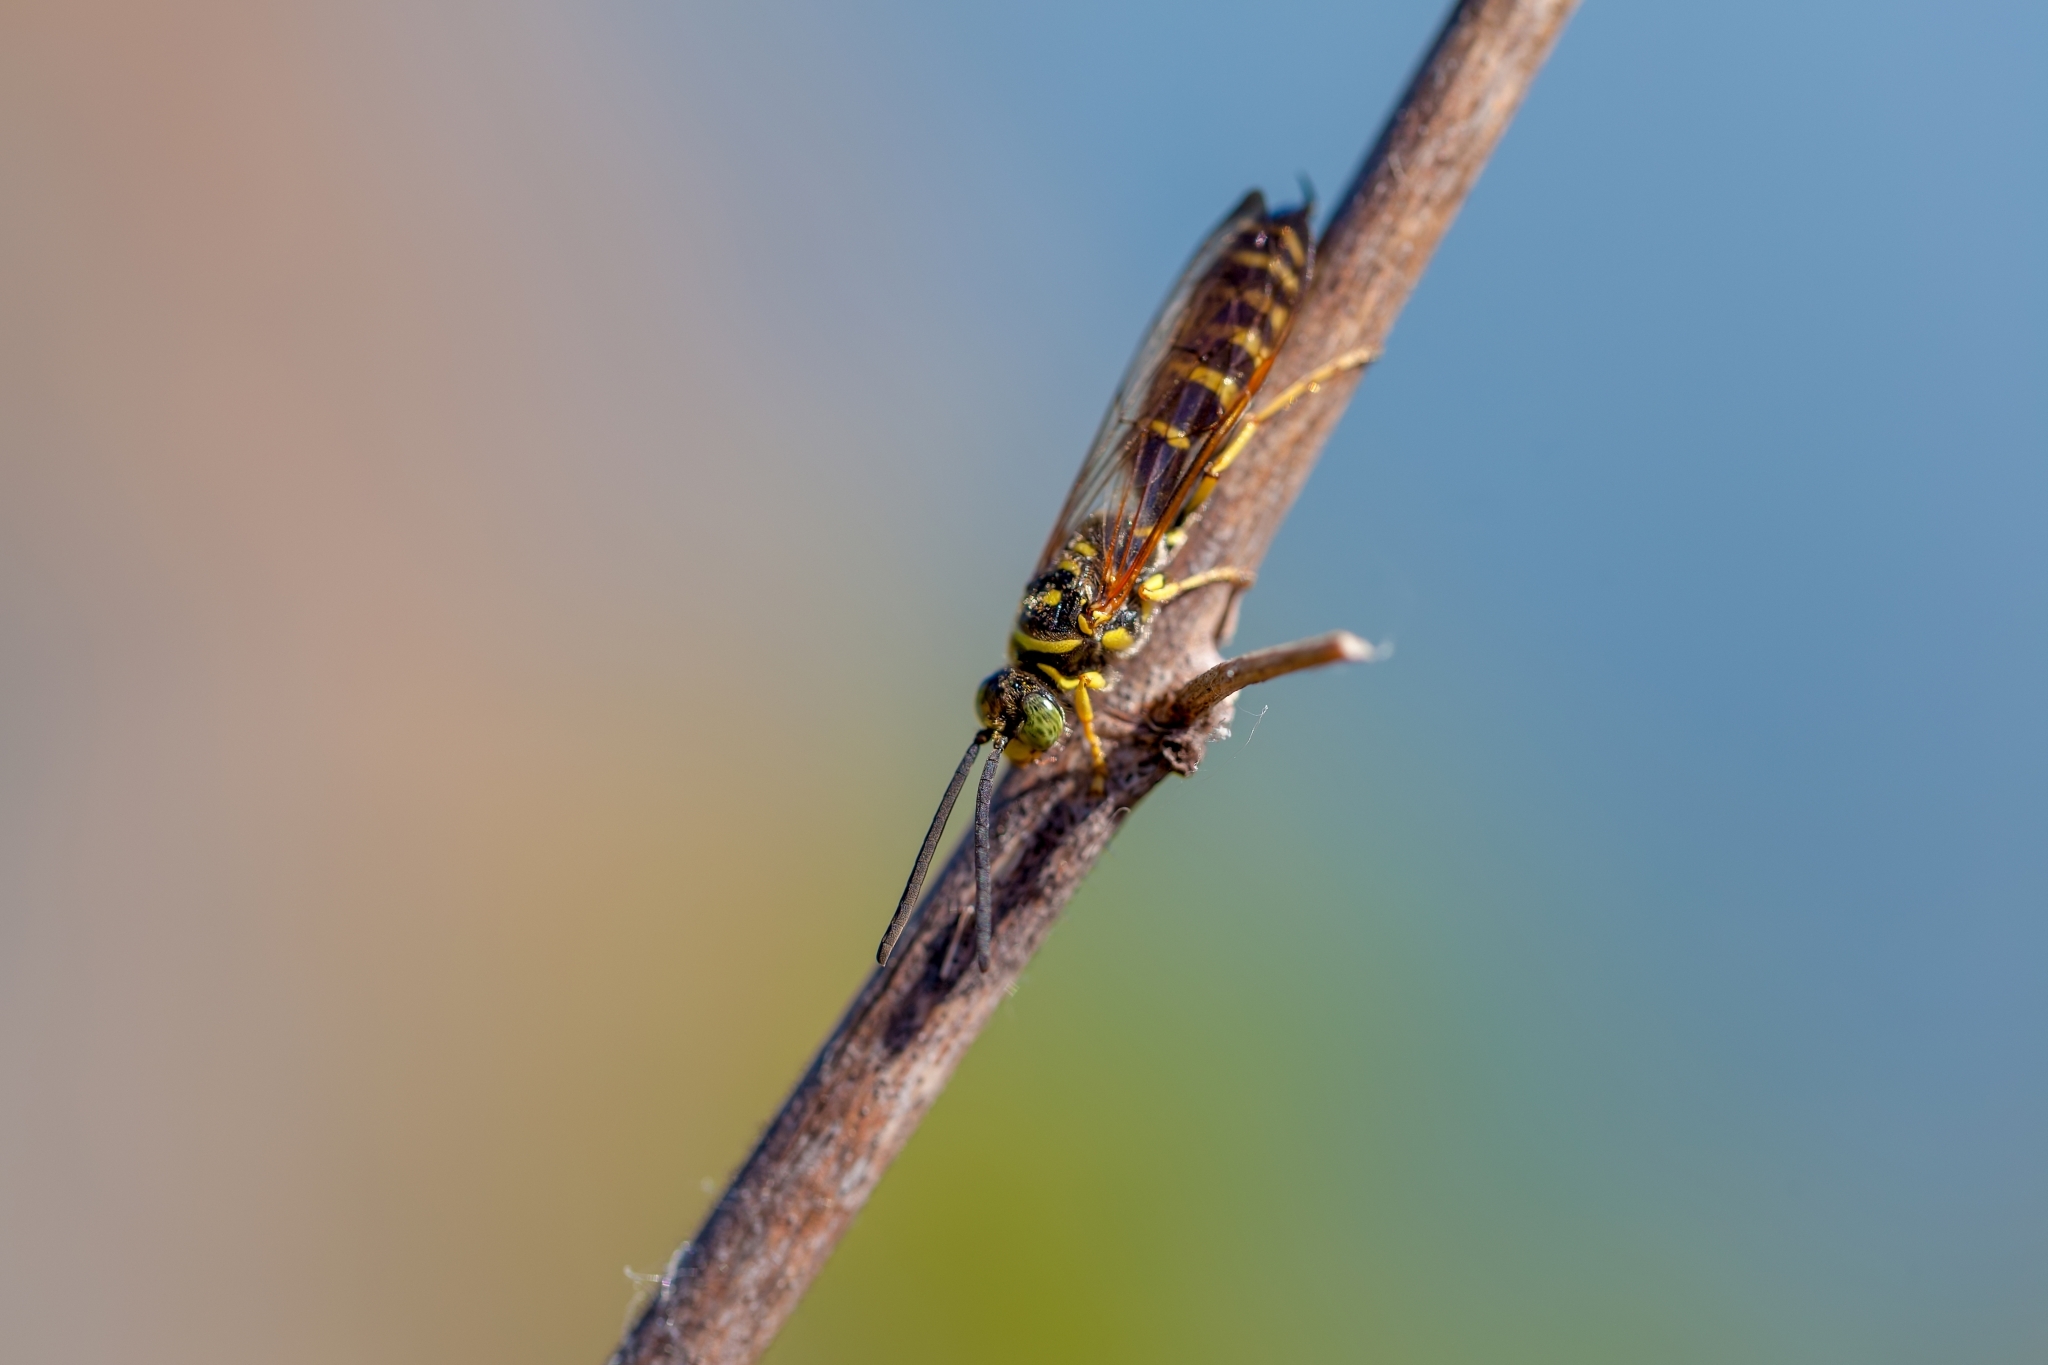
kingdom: Animalia
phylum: Arthropoda
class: Insecta
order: Hymenoptera
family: Tiphiidae
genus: Myzinum
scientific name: Myzinum
